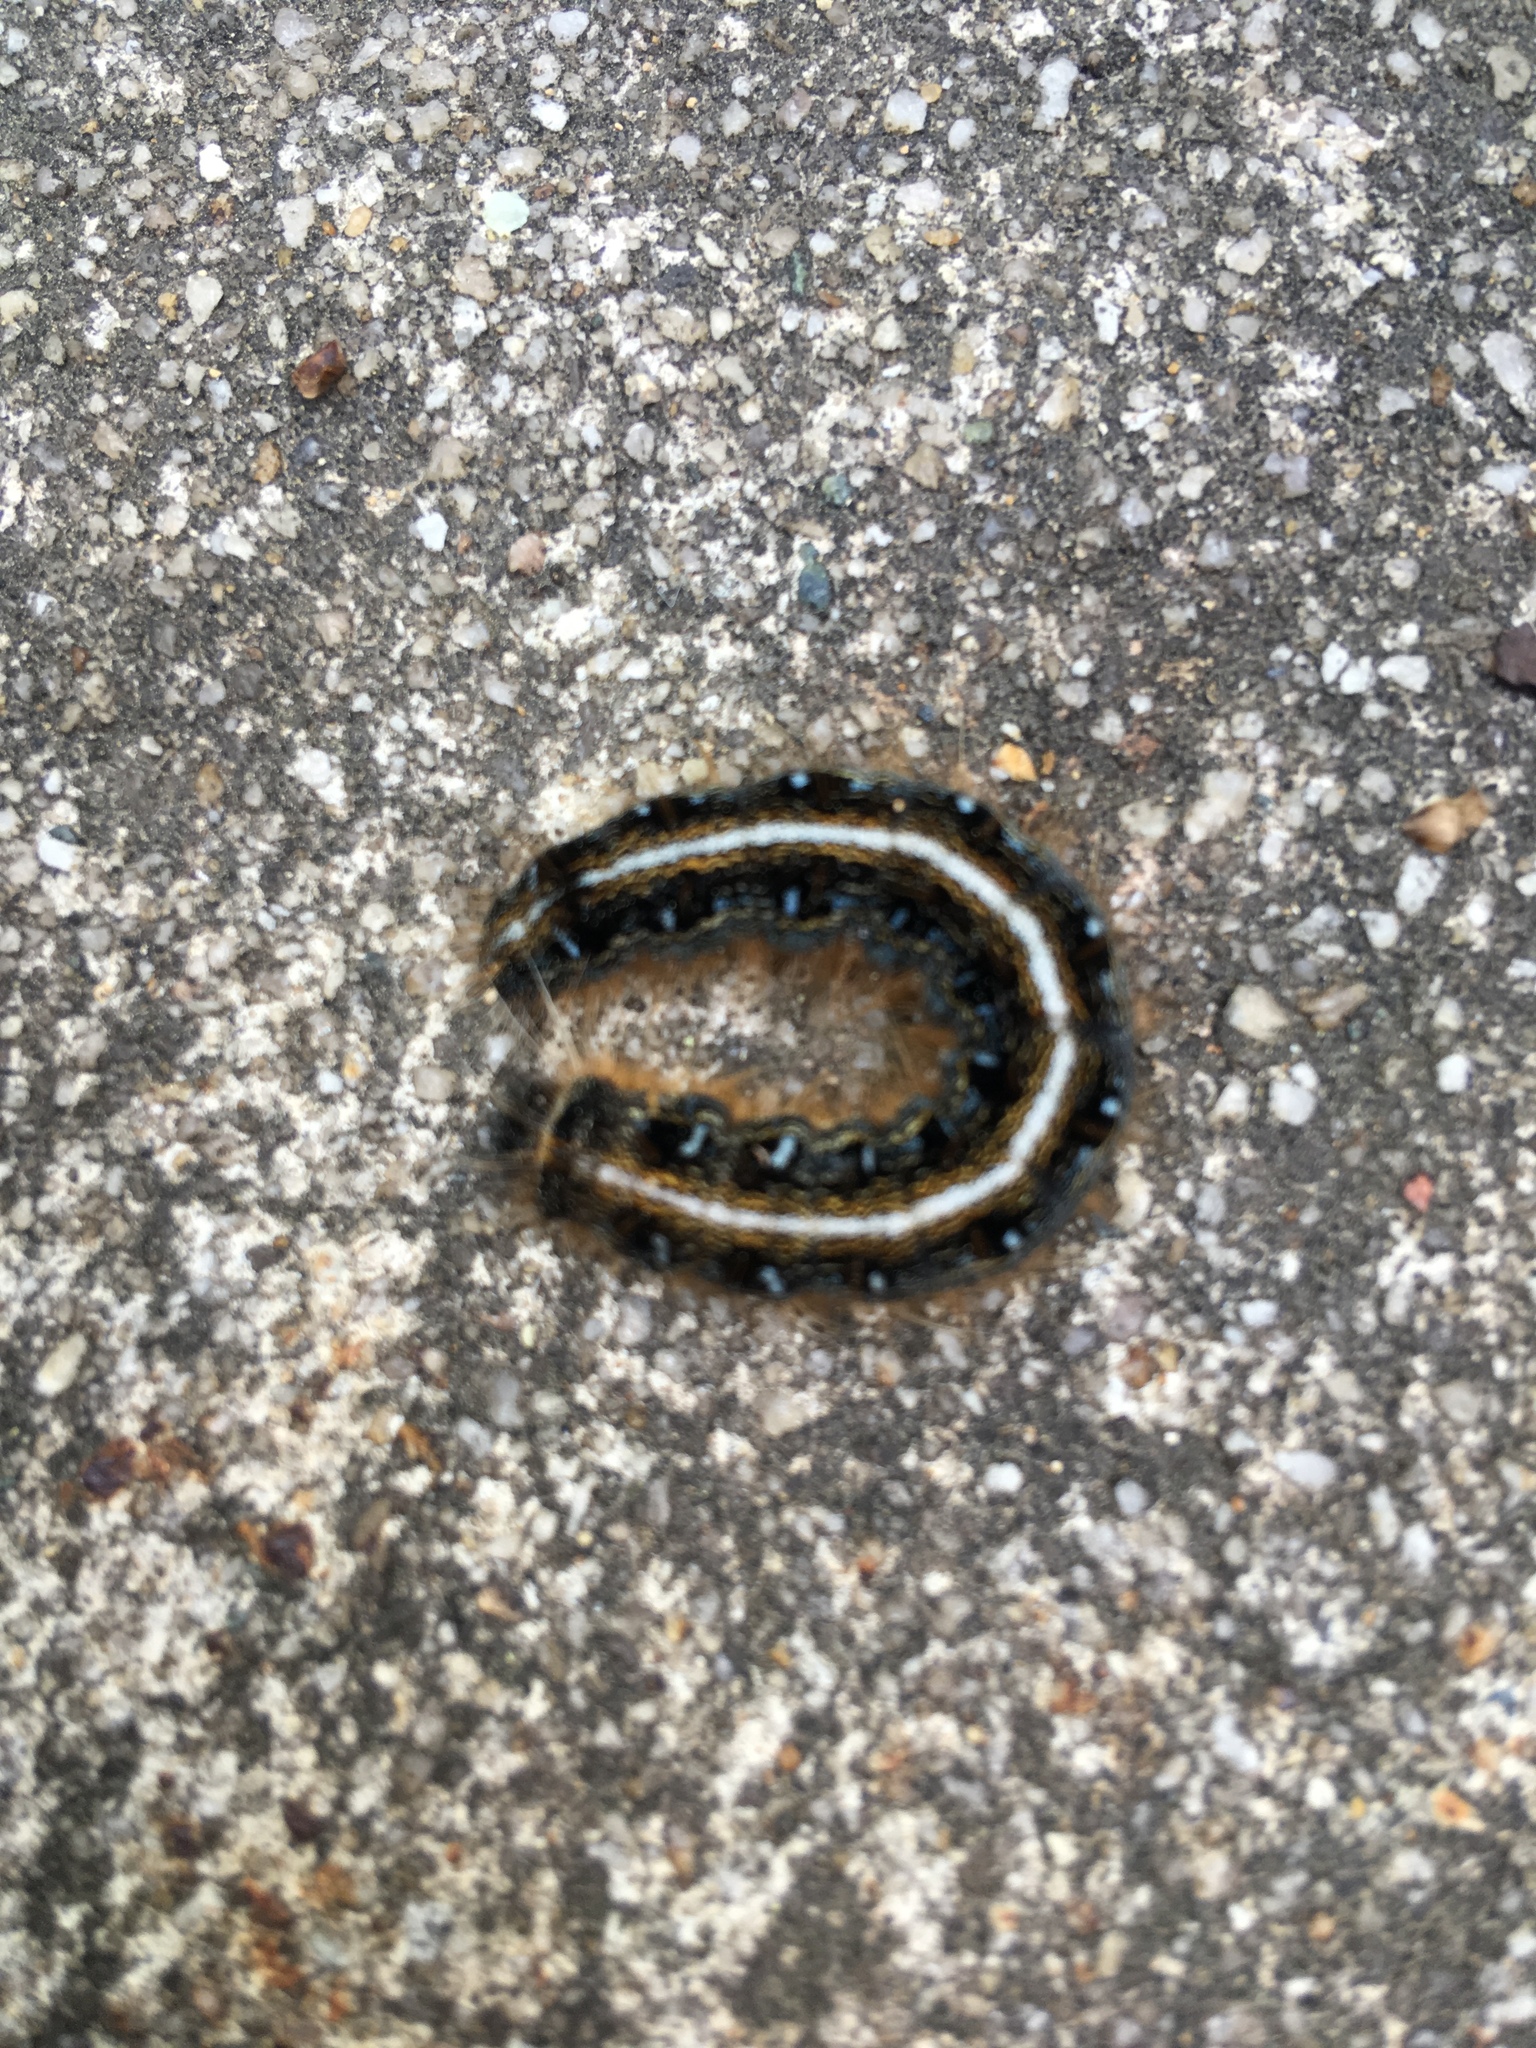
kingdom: Animalia
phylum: Arthropoda
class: Insecta
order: Lepidoptera
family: Lasiocampidae
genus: Malacosoma
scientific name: Malacosoma americana
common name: Eastern tent caterpillar moth
